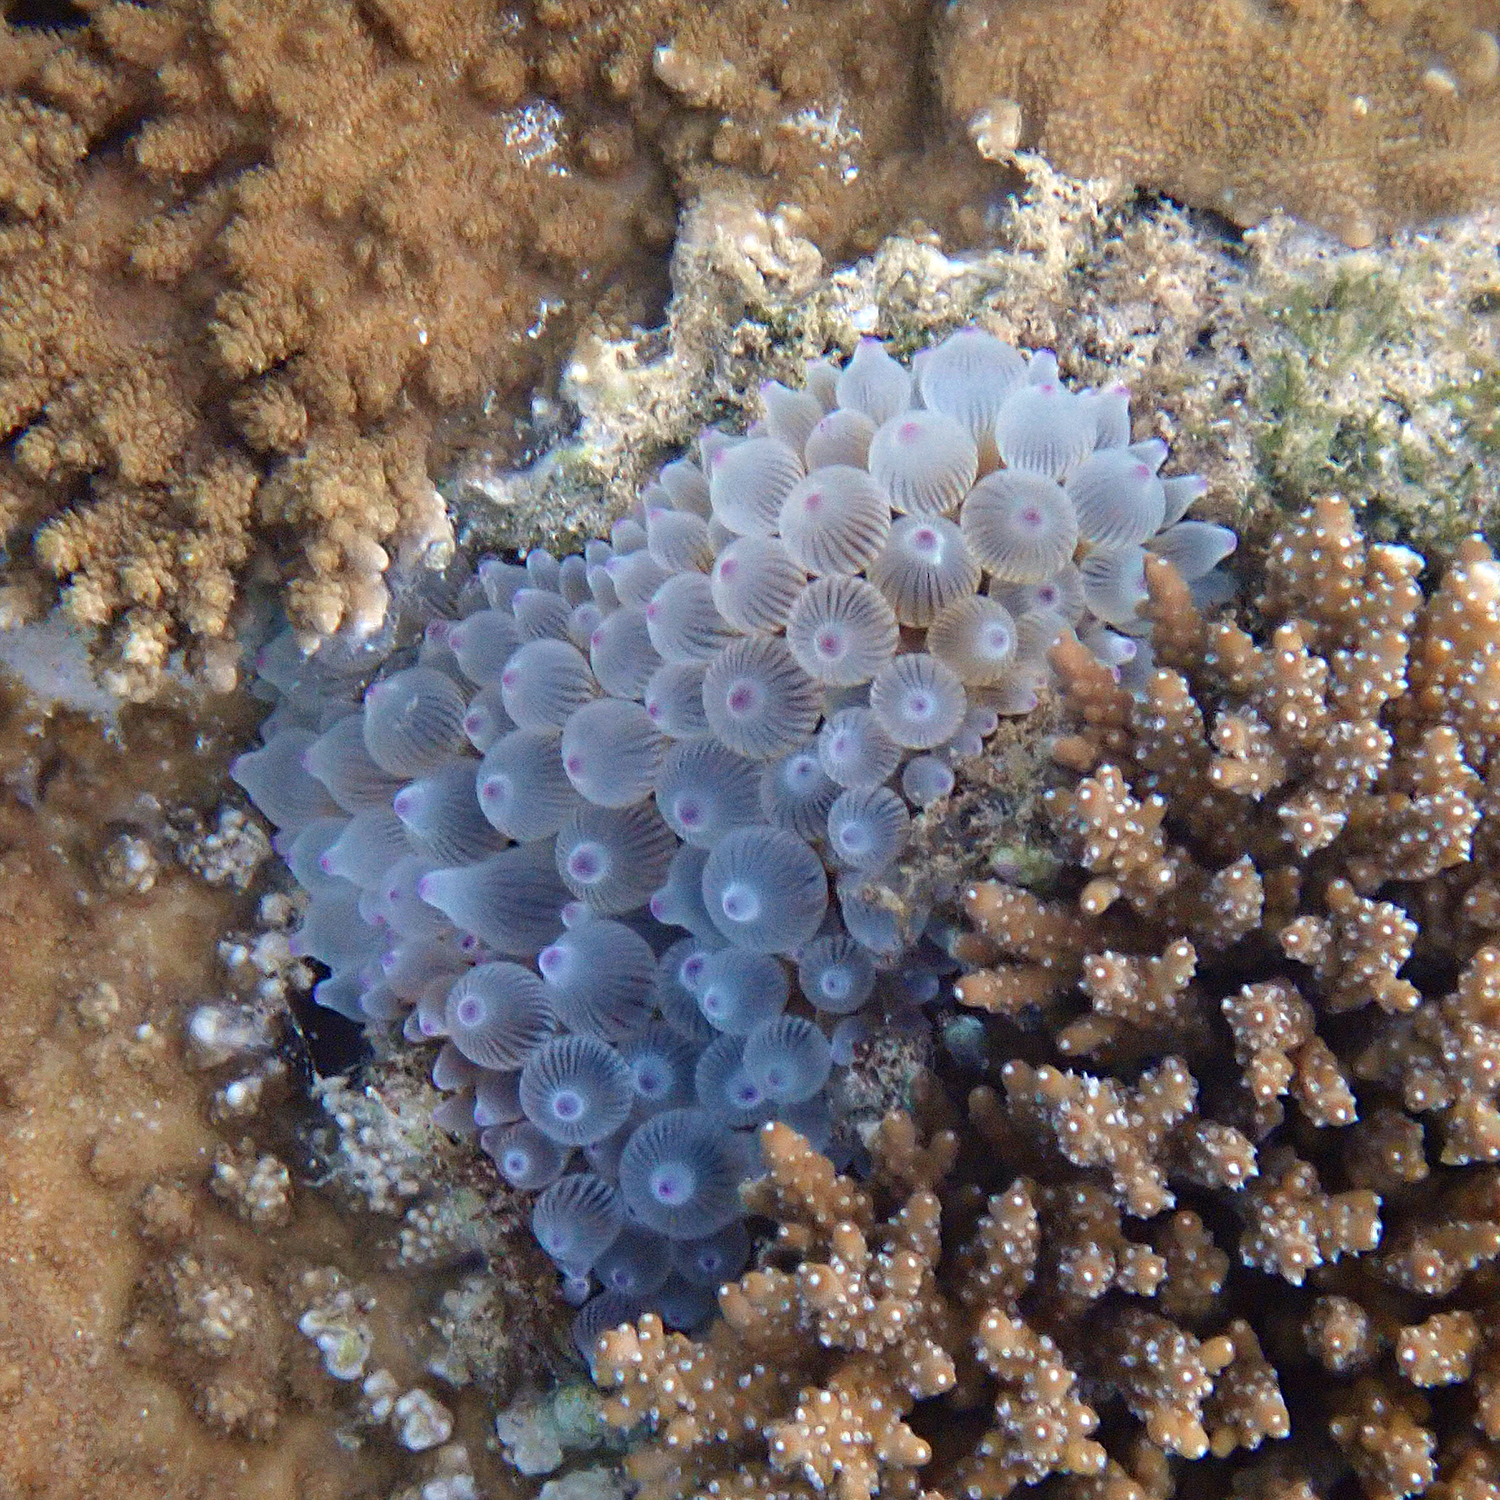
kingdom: Animalia
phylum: Cnidaria
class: Anthozoa
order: Actiniaria
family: Actiniidae
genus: Entacmaea
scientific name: Entacmaea quadricolor
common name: Bulb tentacle sea anemone
